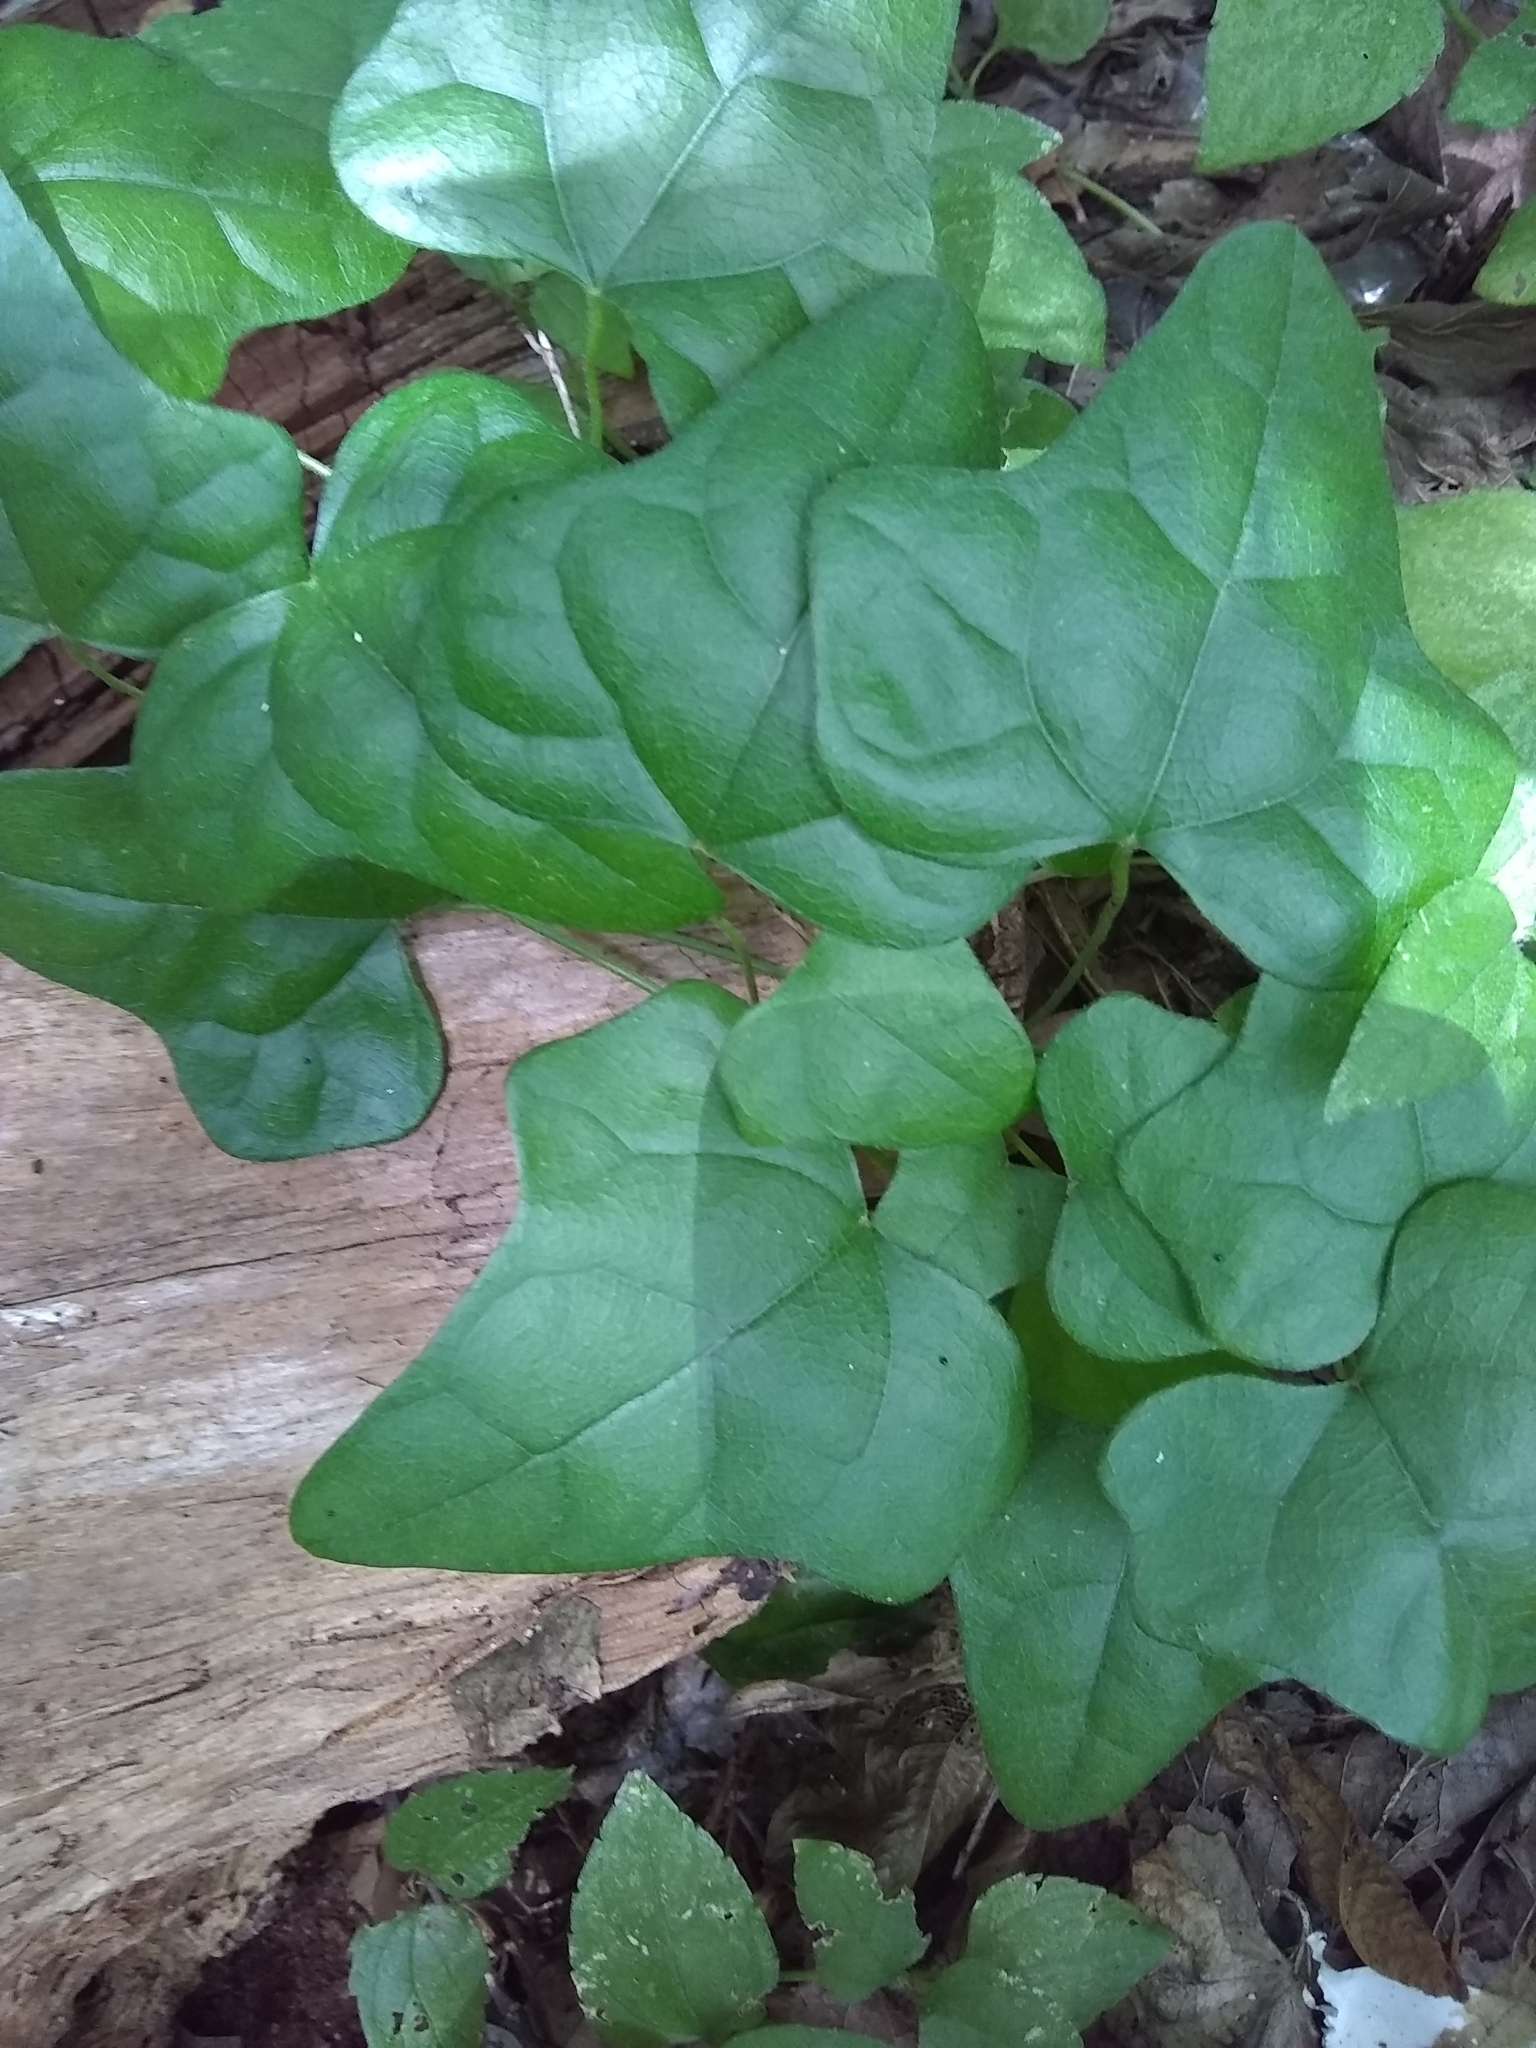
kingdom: Plantae
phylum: Tracheophyta
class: Magnoliopsida
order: Ranunculales
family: Menispermaceae
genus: Cocculus
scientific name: Cocculus carolinus
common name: Carolina moonseed
